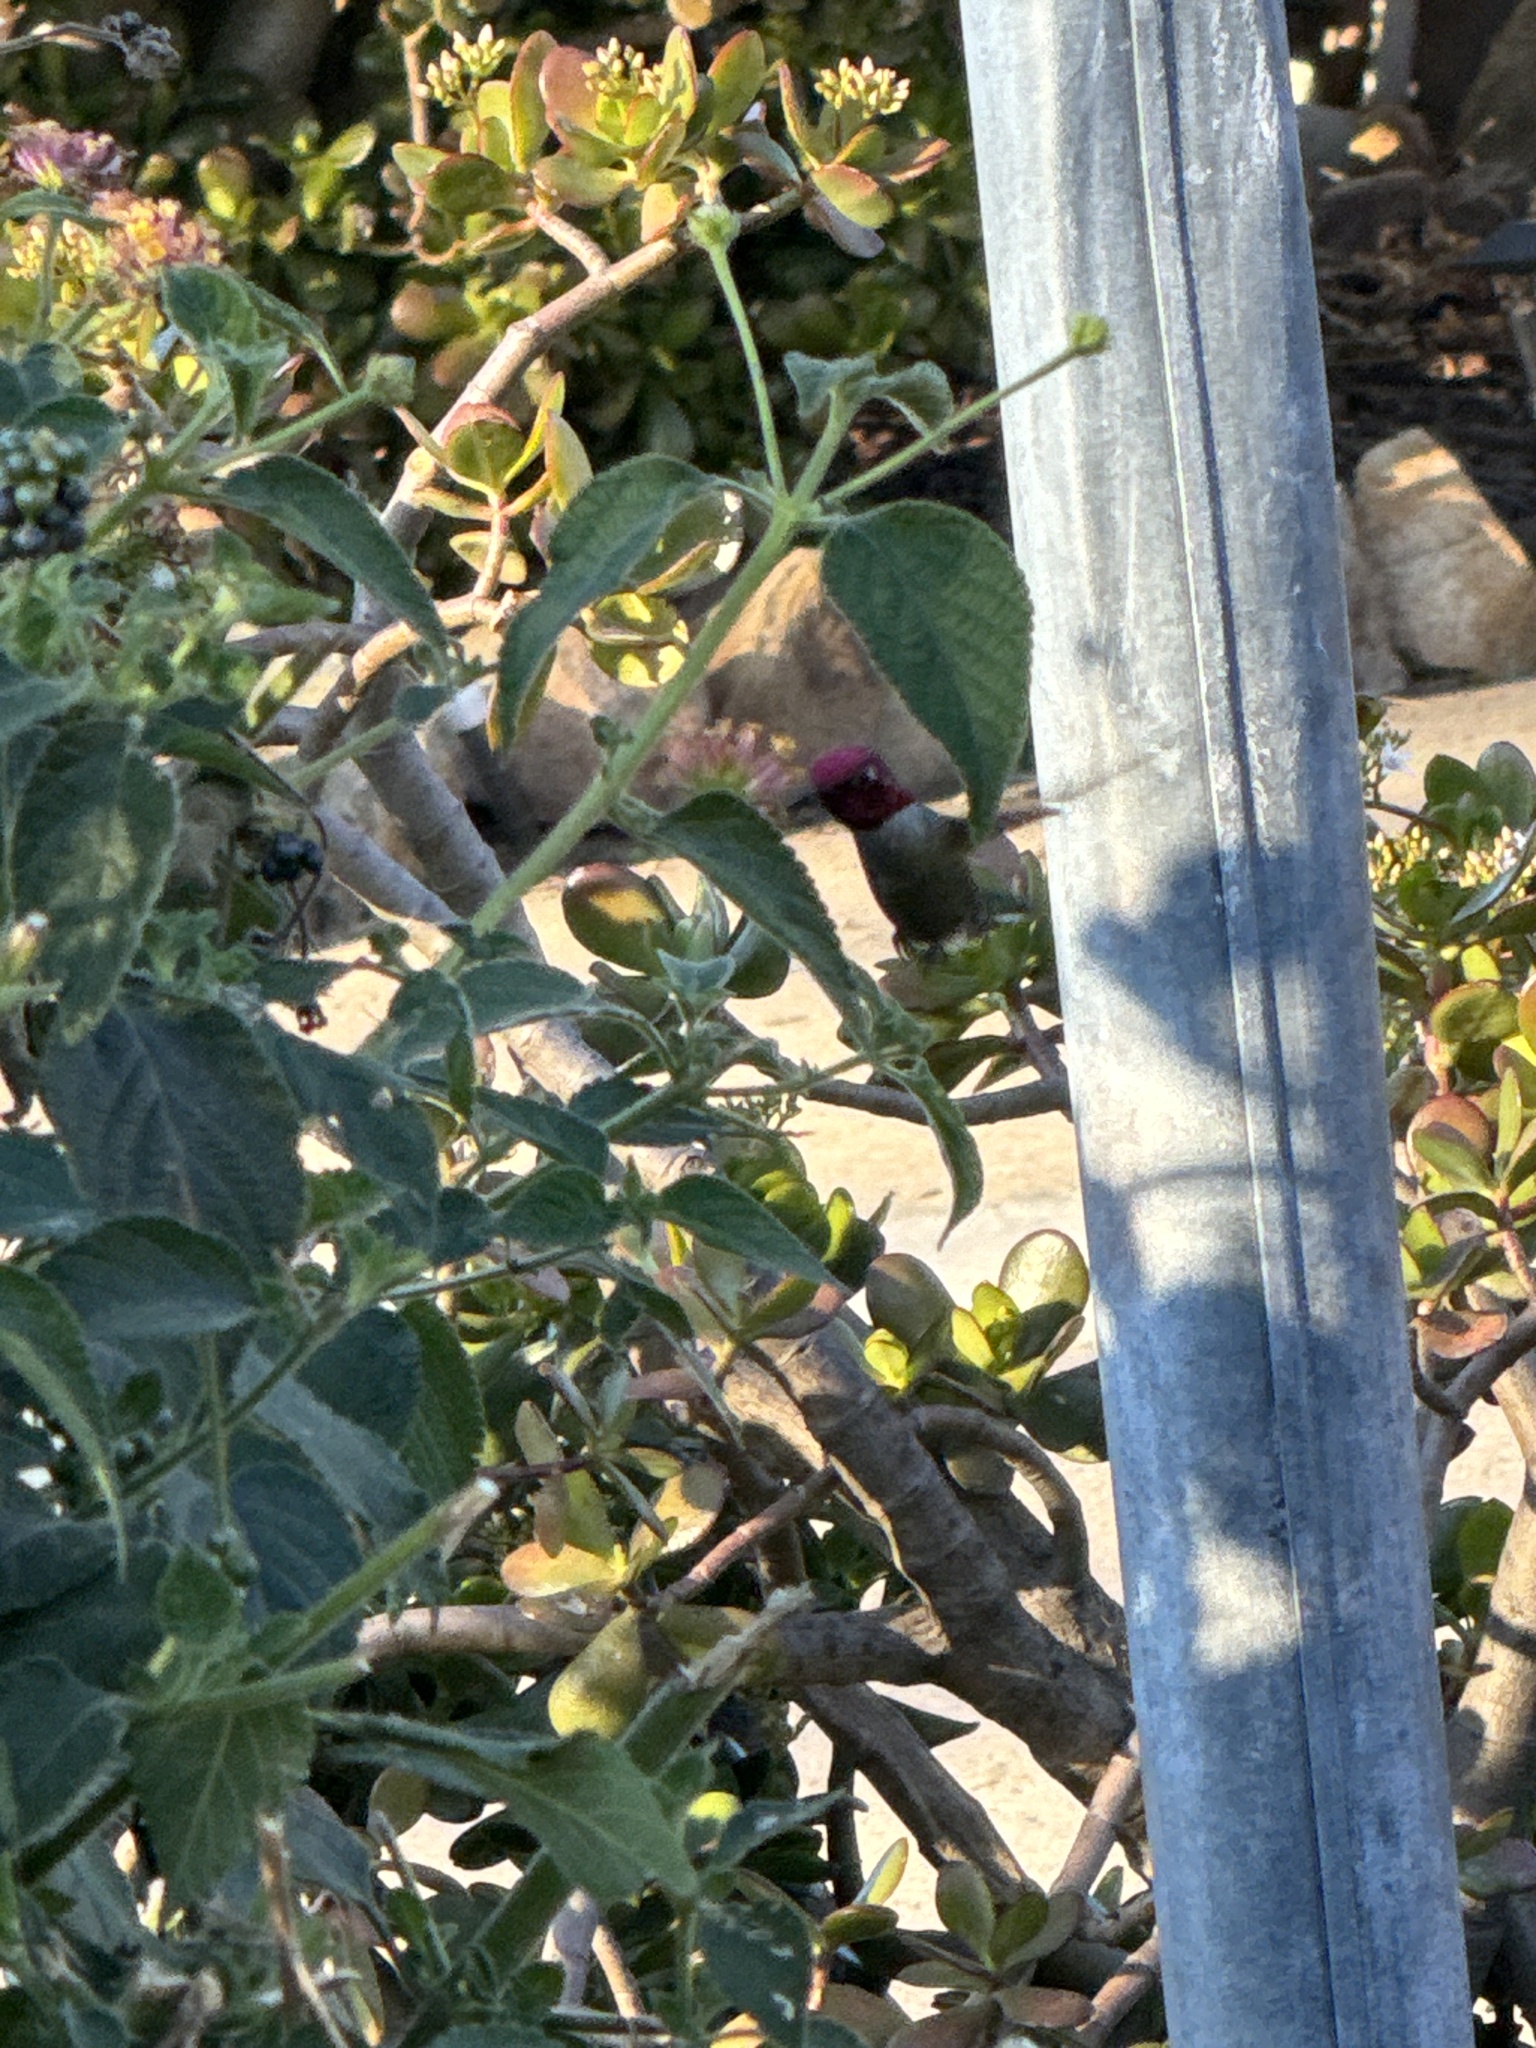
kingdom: Animalia
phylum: Chordata
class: Aves
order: Apodiformes
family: Trochilidae
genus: Calypte
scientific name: Calypte anna
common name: Anna's hummingbird
